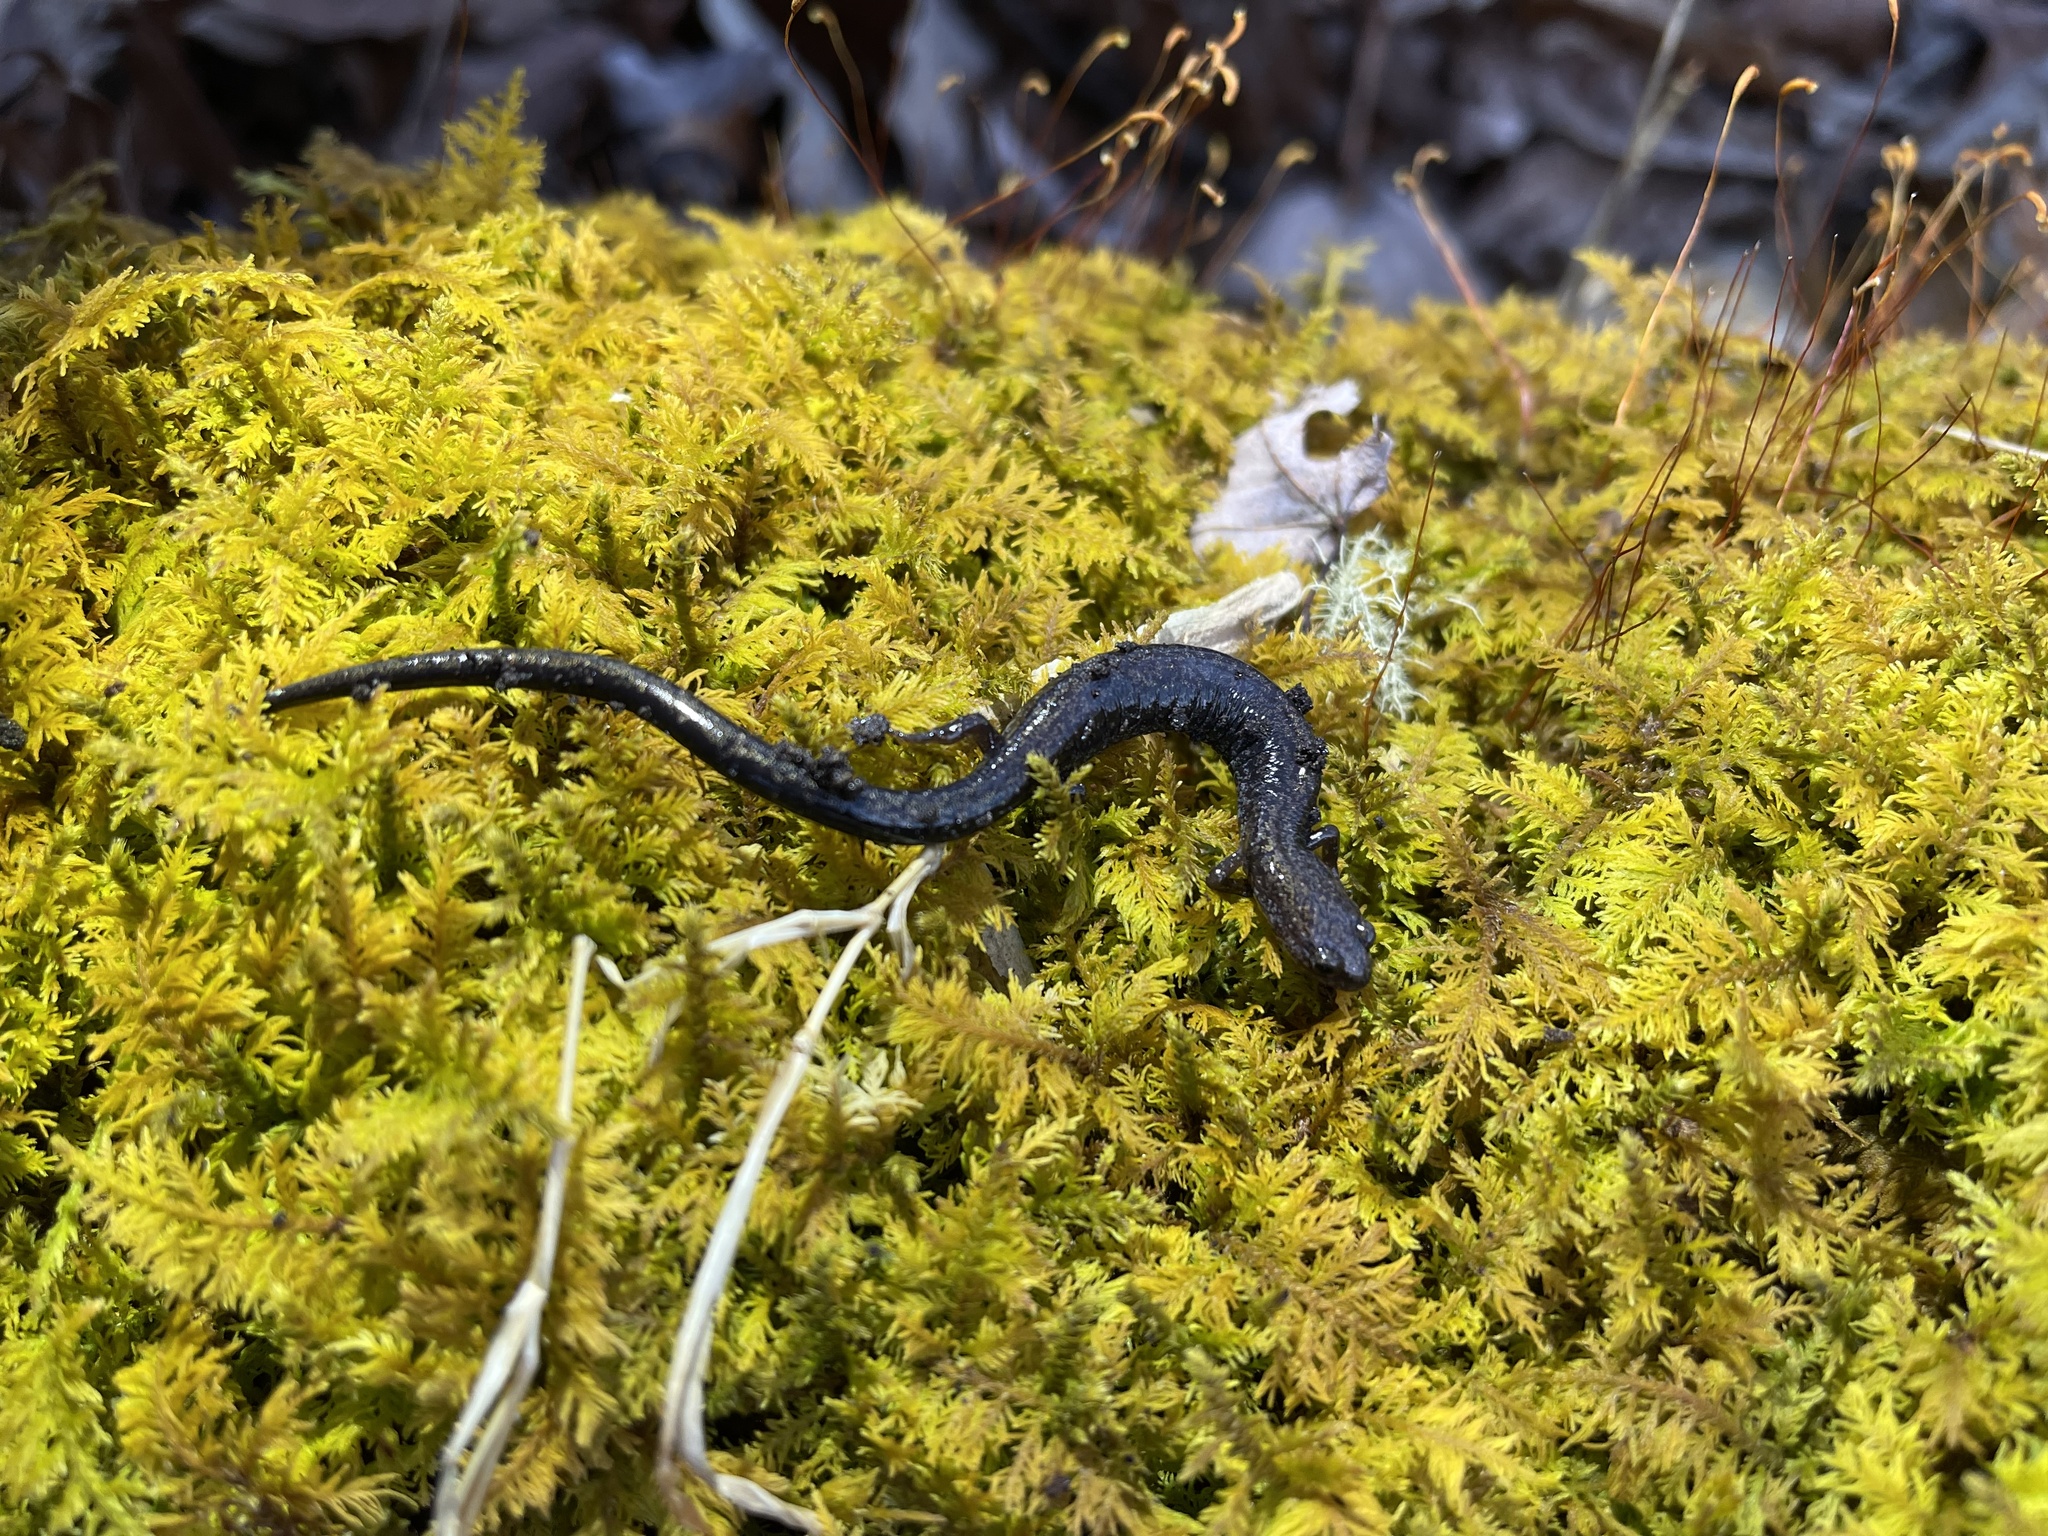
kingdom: Animalia
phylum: Chordata
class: Amphibia
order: Caudata
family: Plethodontidae
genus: Plethodon
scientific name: Plethodon richmondi
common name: Ravine salamander
